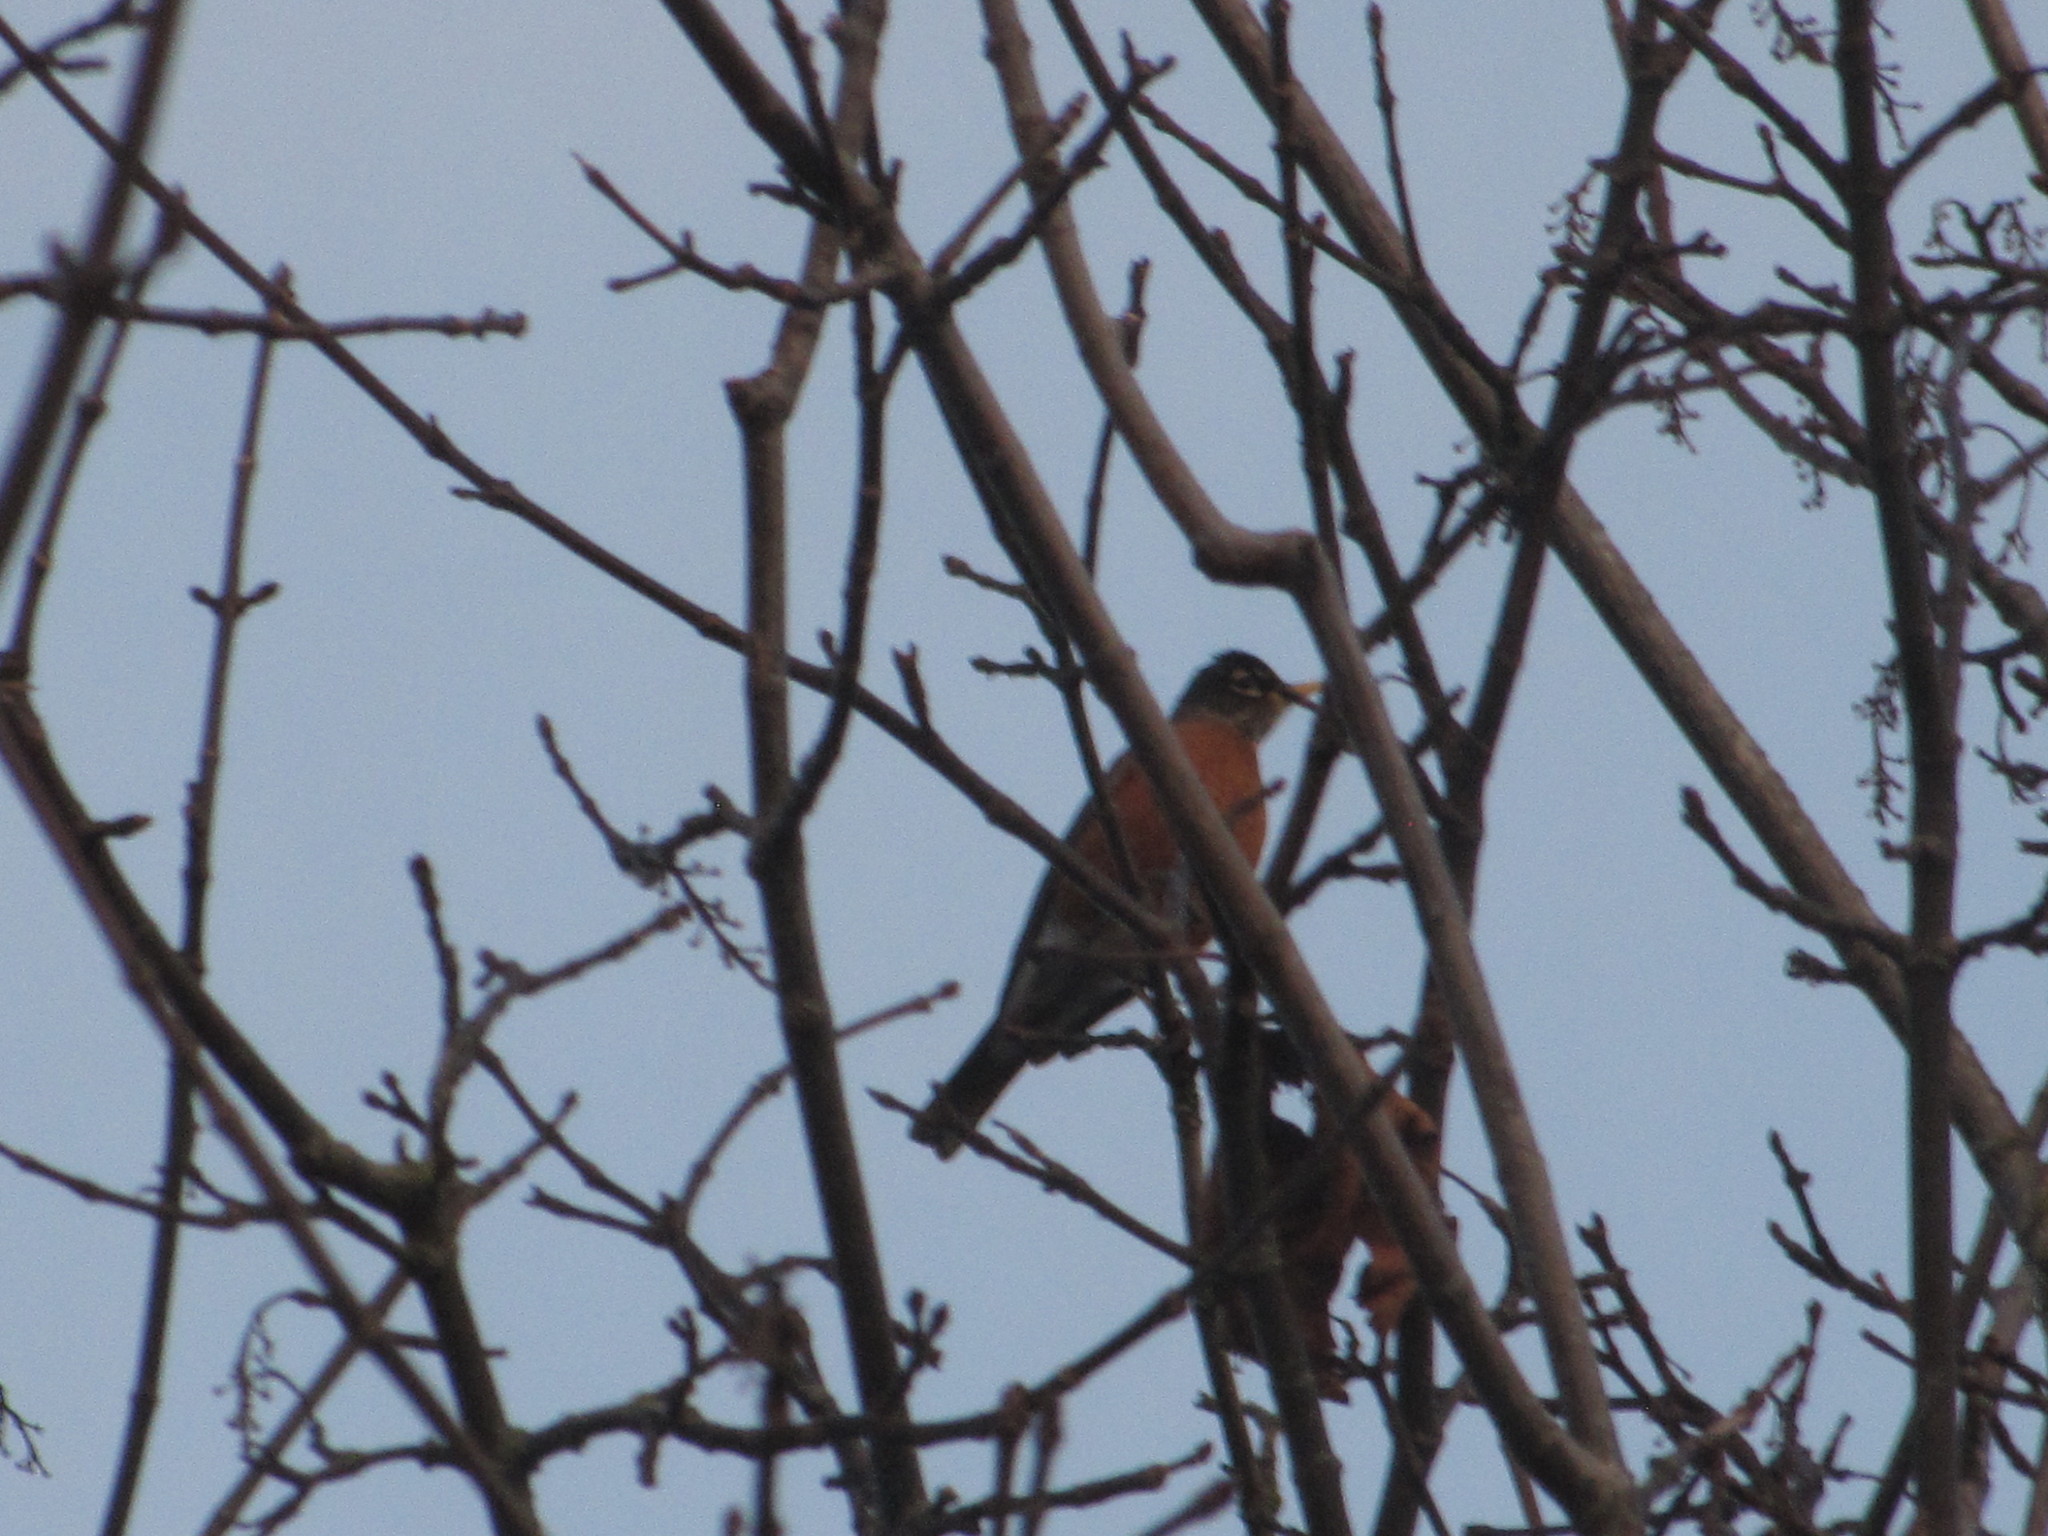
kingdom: Animalia
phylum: Chordata
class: Aves
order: Passeriformes
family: Turdidae
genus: Turdus
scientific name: Turdus migratorius
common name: American robin
